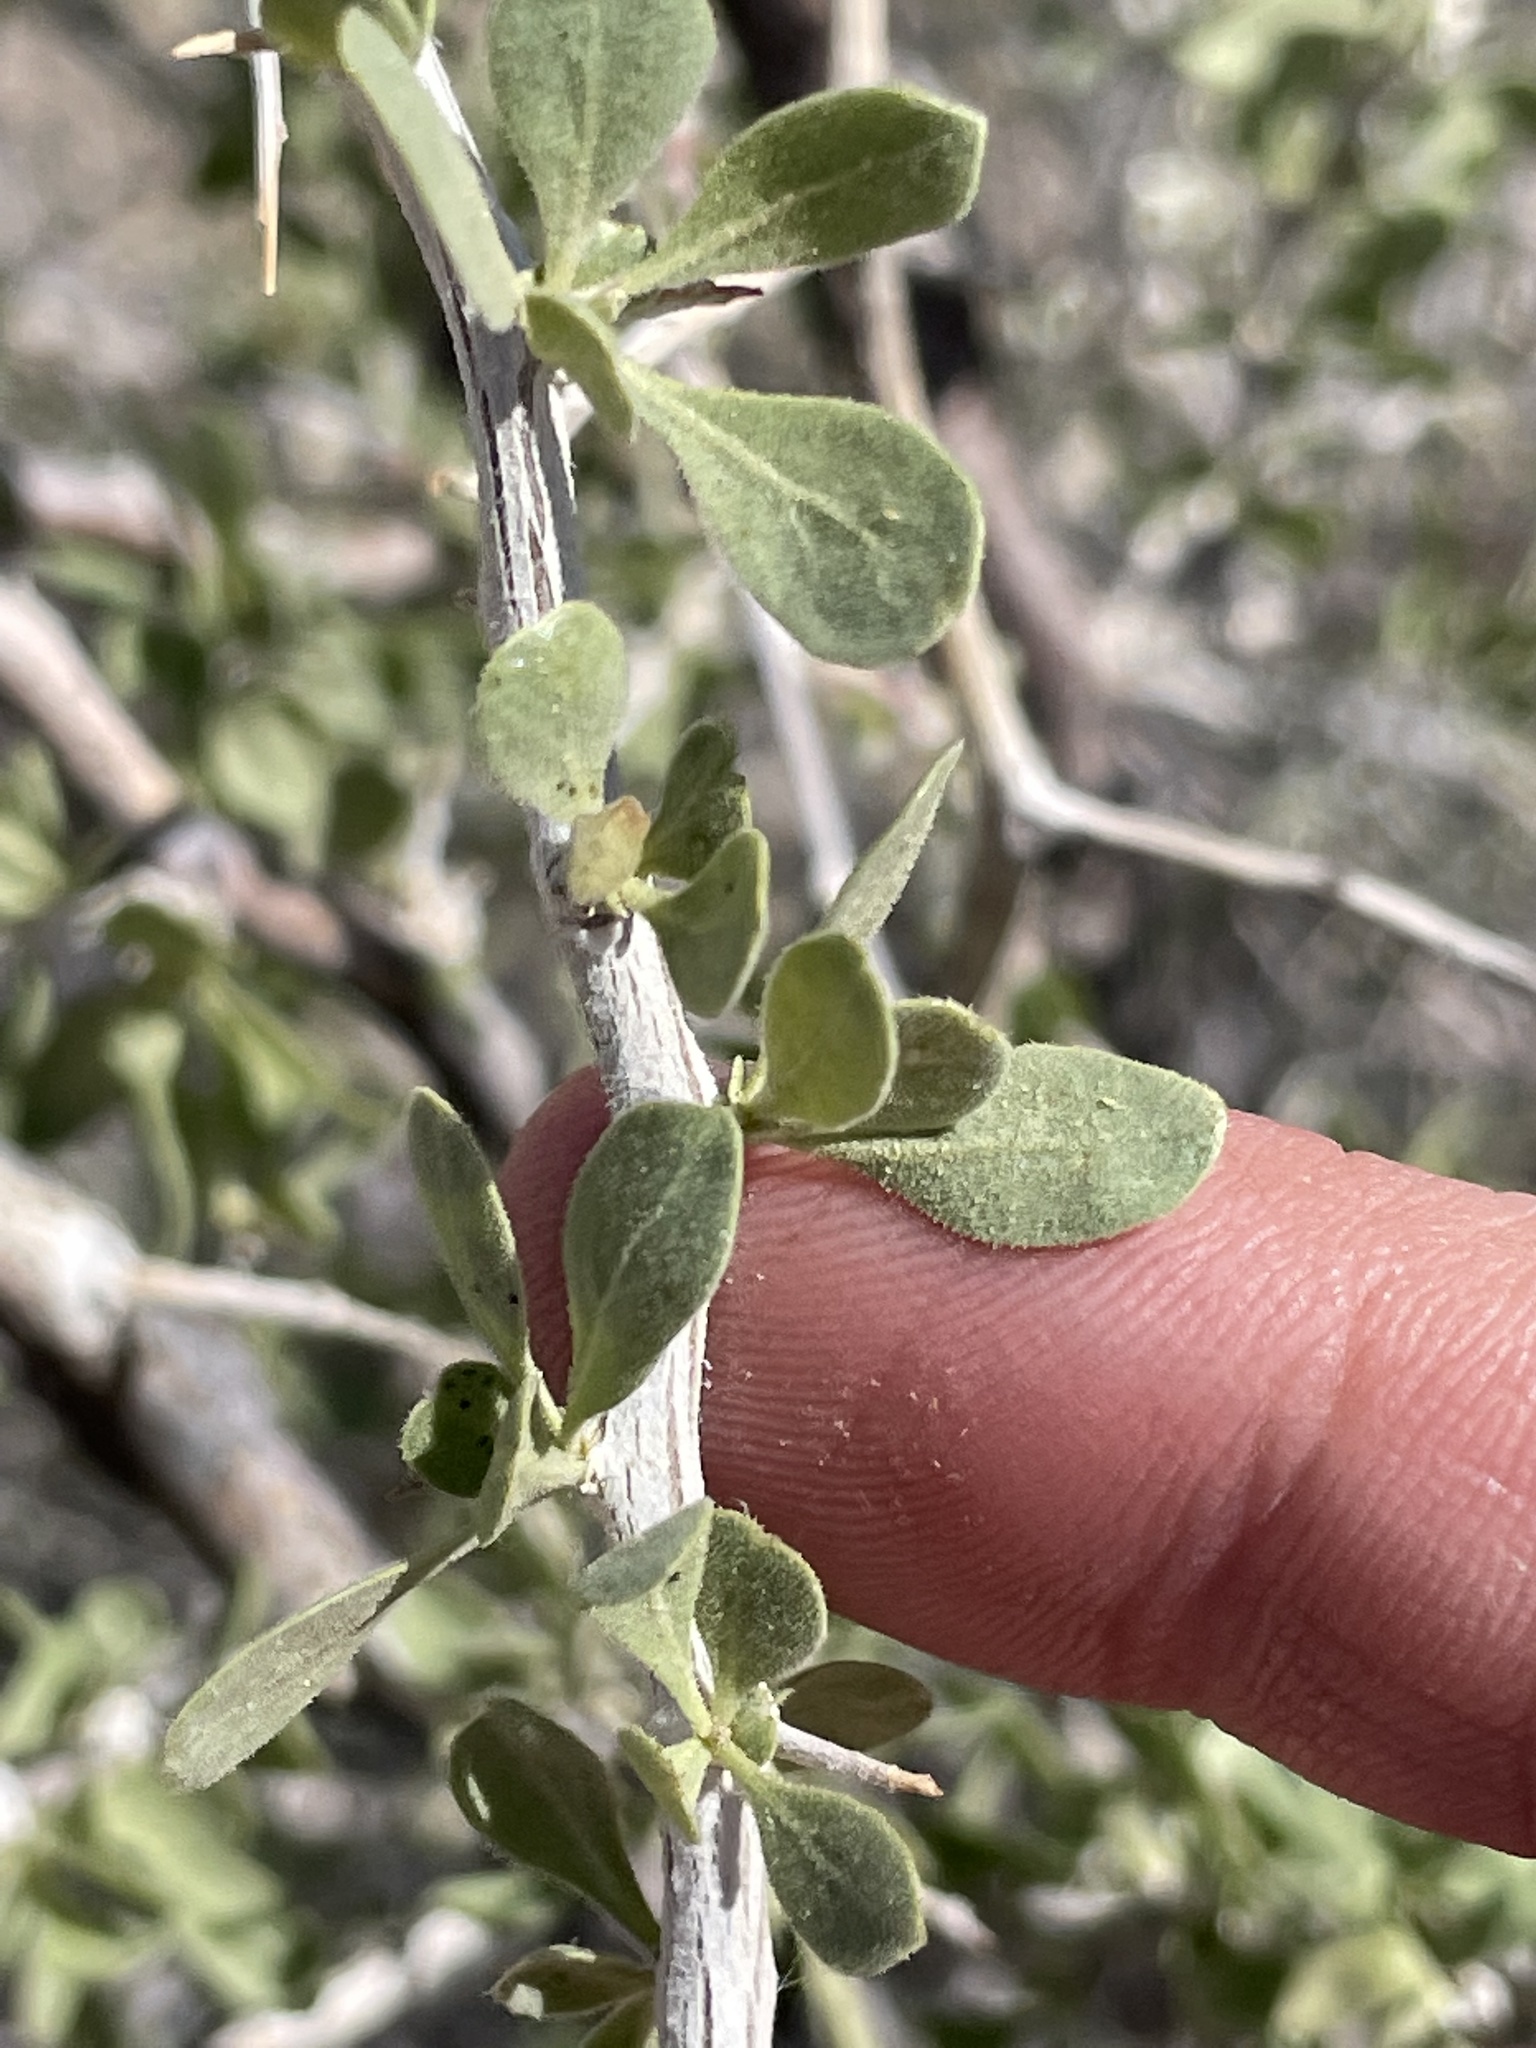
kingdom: Plantae
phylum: Tracheophyta
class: Magnoliopsida
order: Solanales
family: Solanaceae
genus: Lycium
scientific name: Lycium cooperi
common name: Peachthorn
